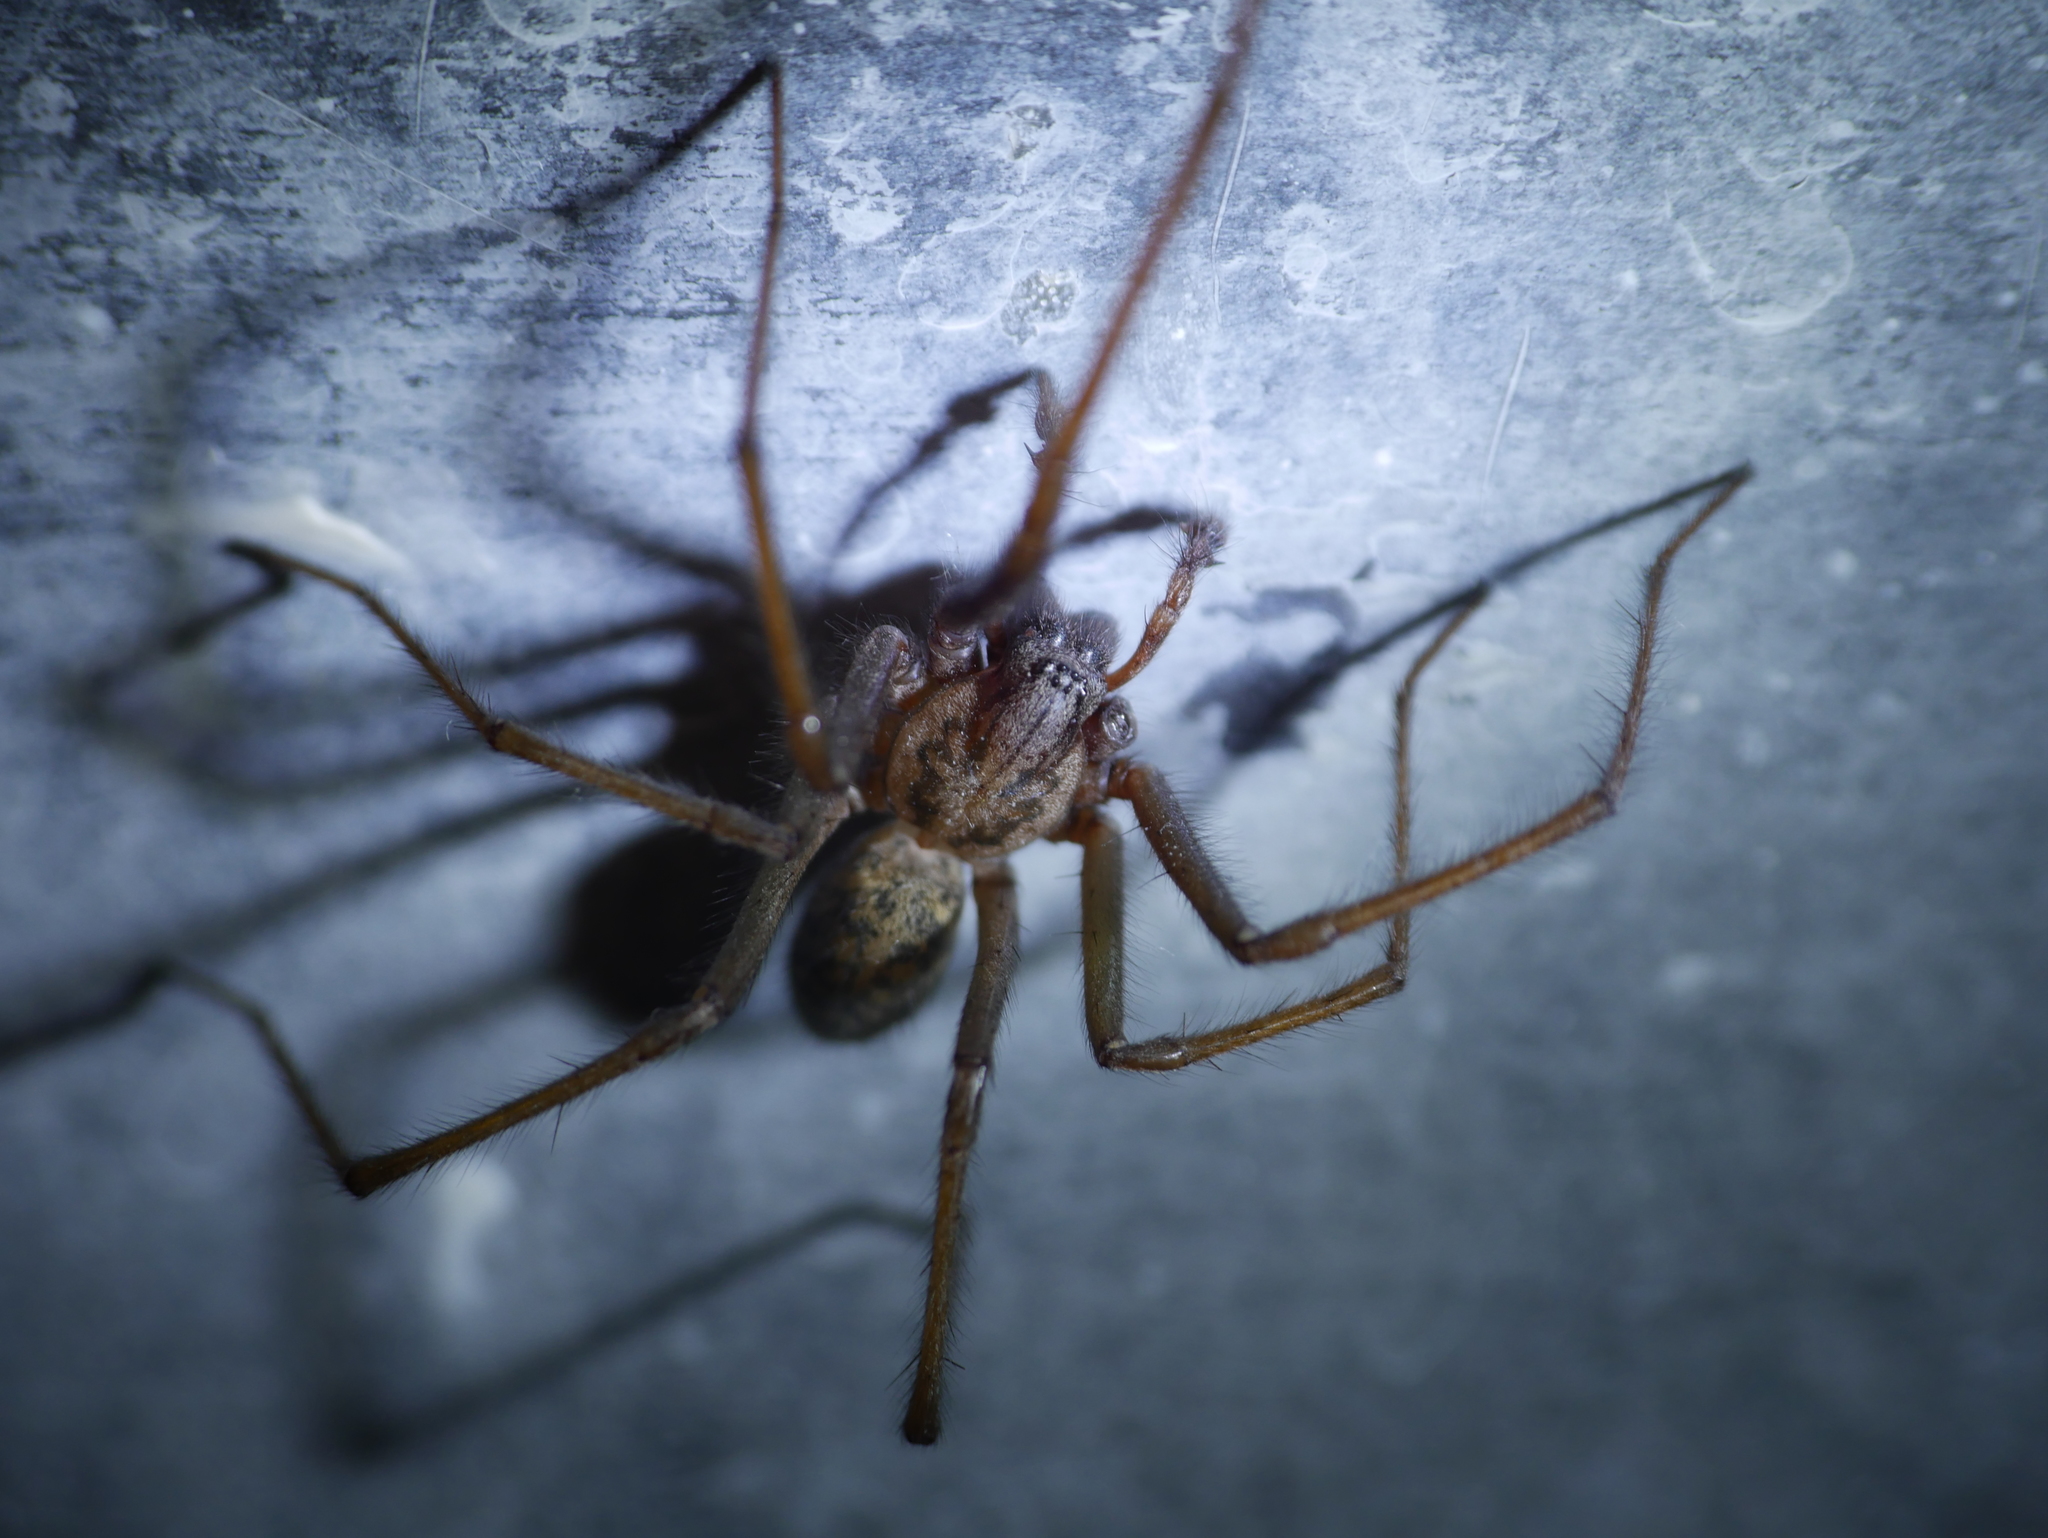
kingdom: Animalia
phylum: Arthropoda
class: Arachnida
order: Araneae
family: Agelenidae
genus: Eratigena
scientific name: Eratigena atrica
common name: Giant house spider
